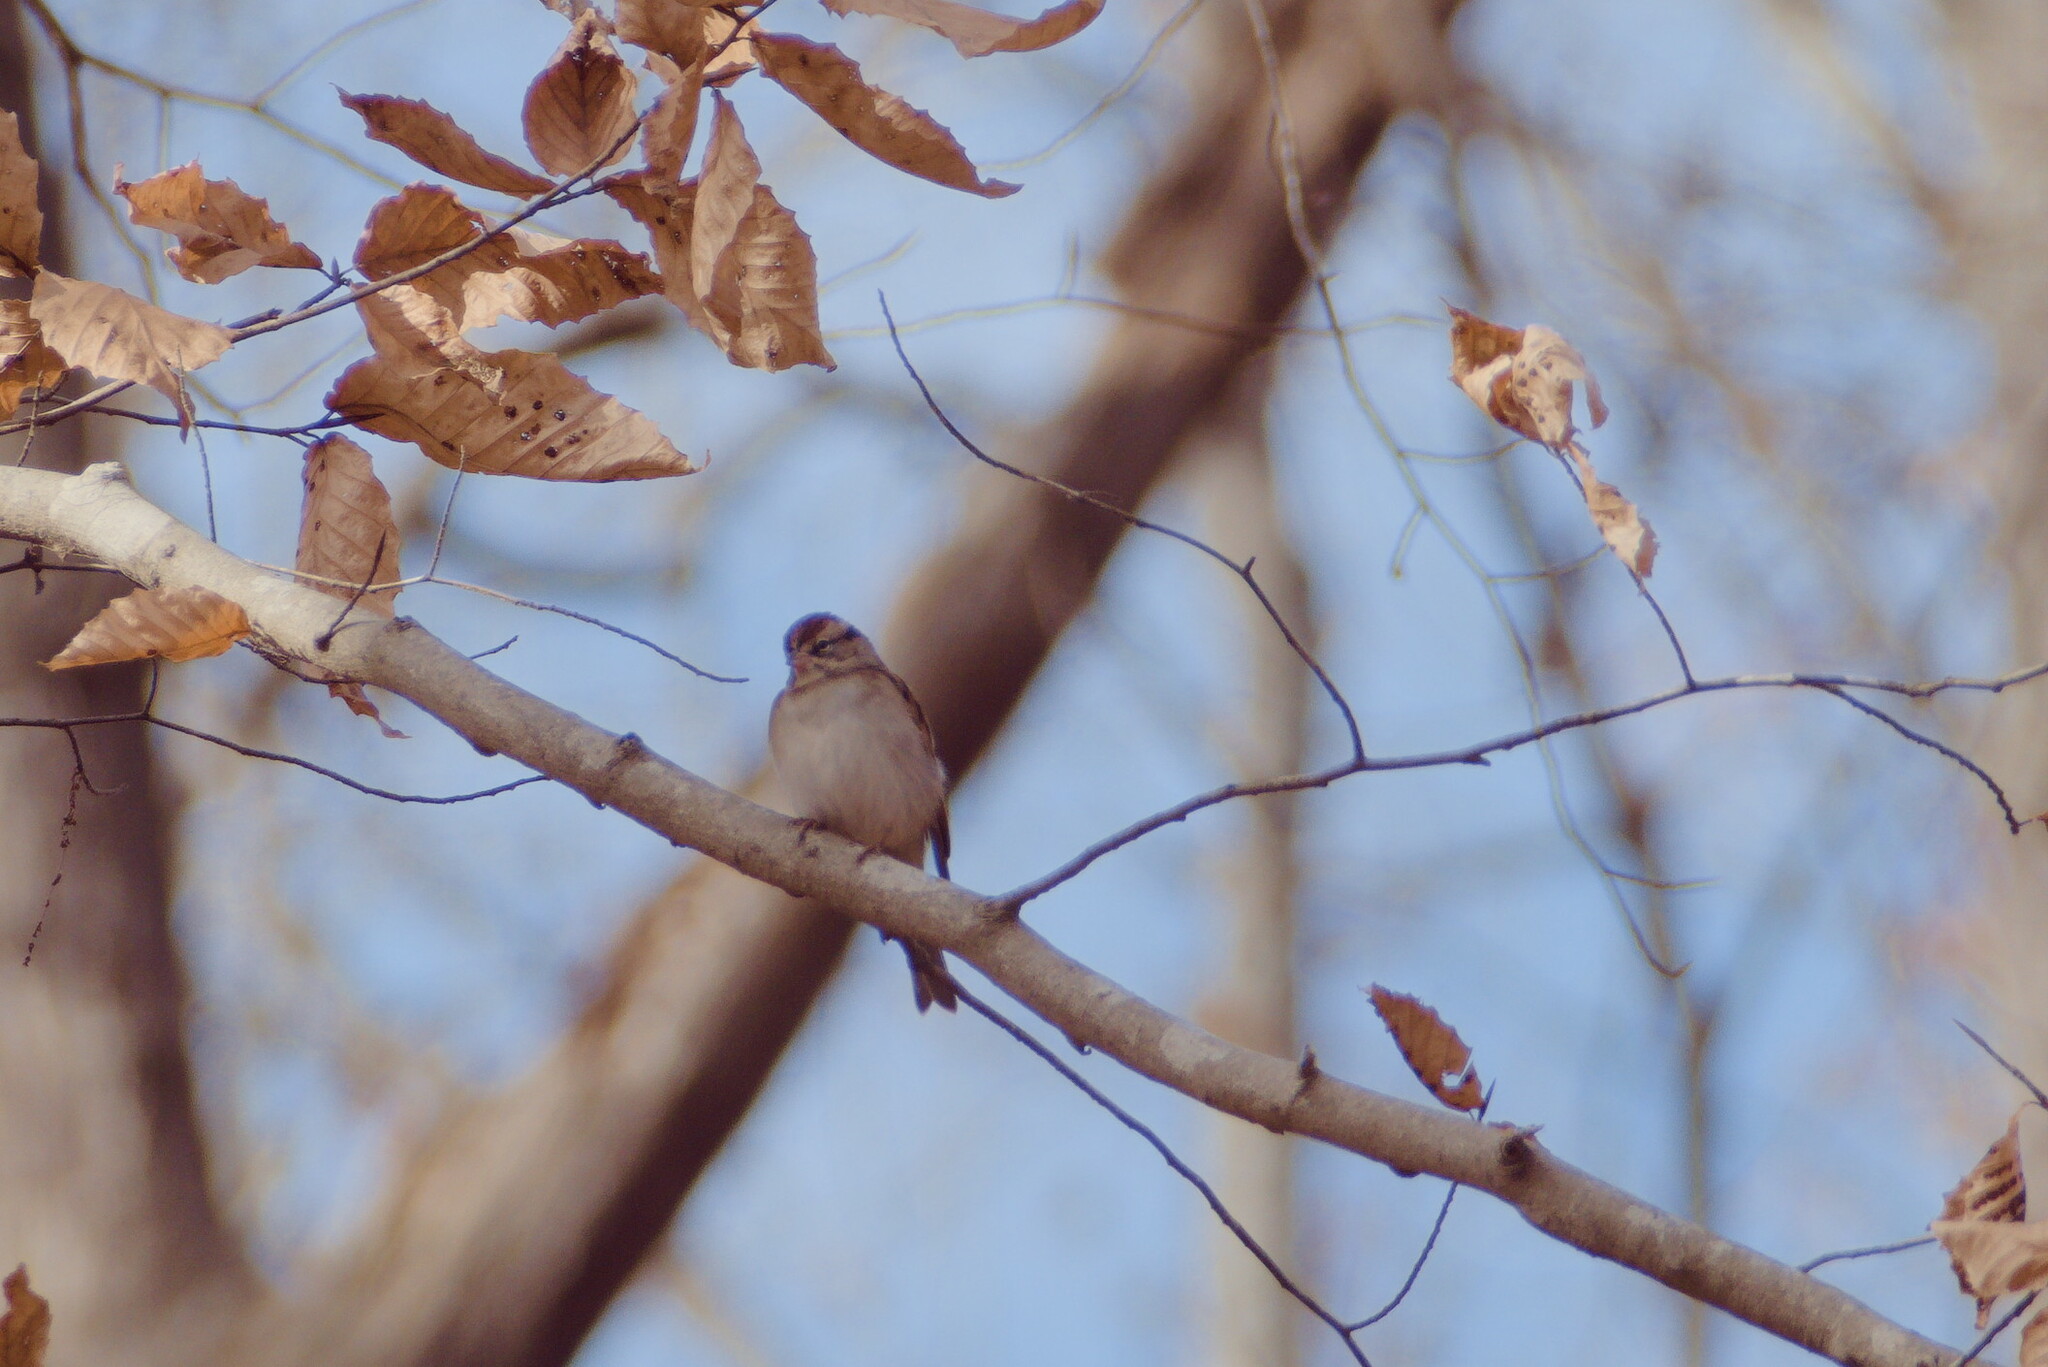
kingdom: Animalia
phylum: Chordata
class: Aves
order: Passeriformes
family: Passerellidae
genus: Spizella
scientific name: Spizella passerina
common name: Chipping sparrow
